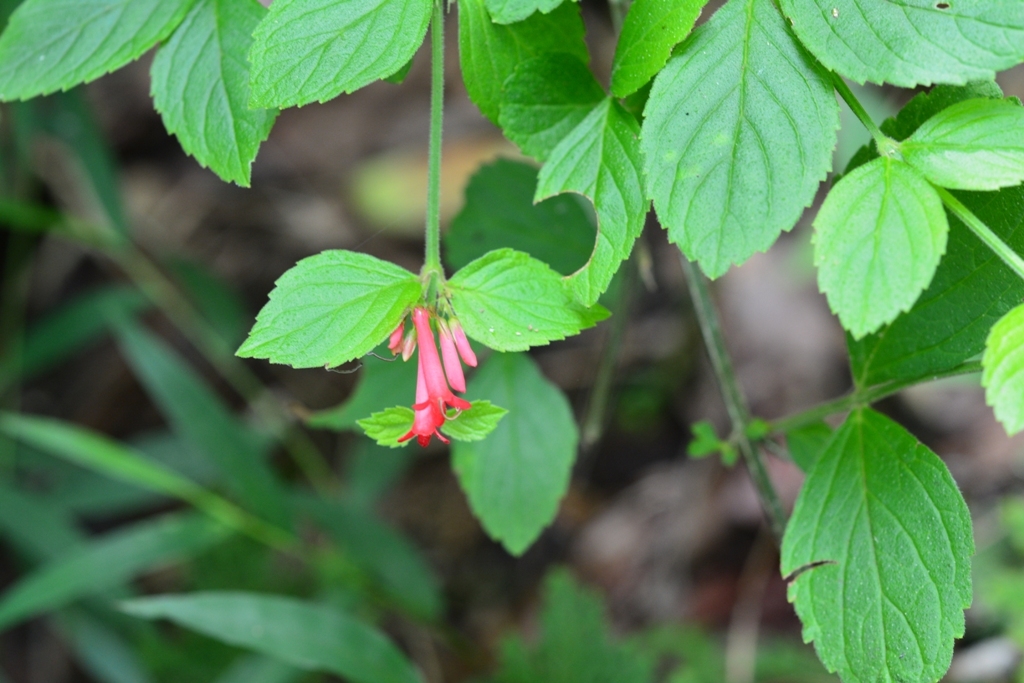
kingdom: Plantae
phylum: Tracheophyta
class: Magnoliopsida
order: Lamiales
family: Plantaginaceae
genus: Russelia
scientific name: Russelia sarmentosa
